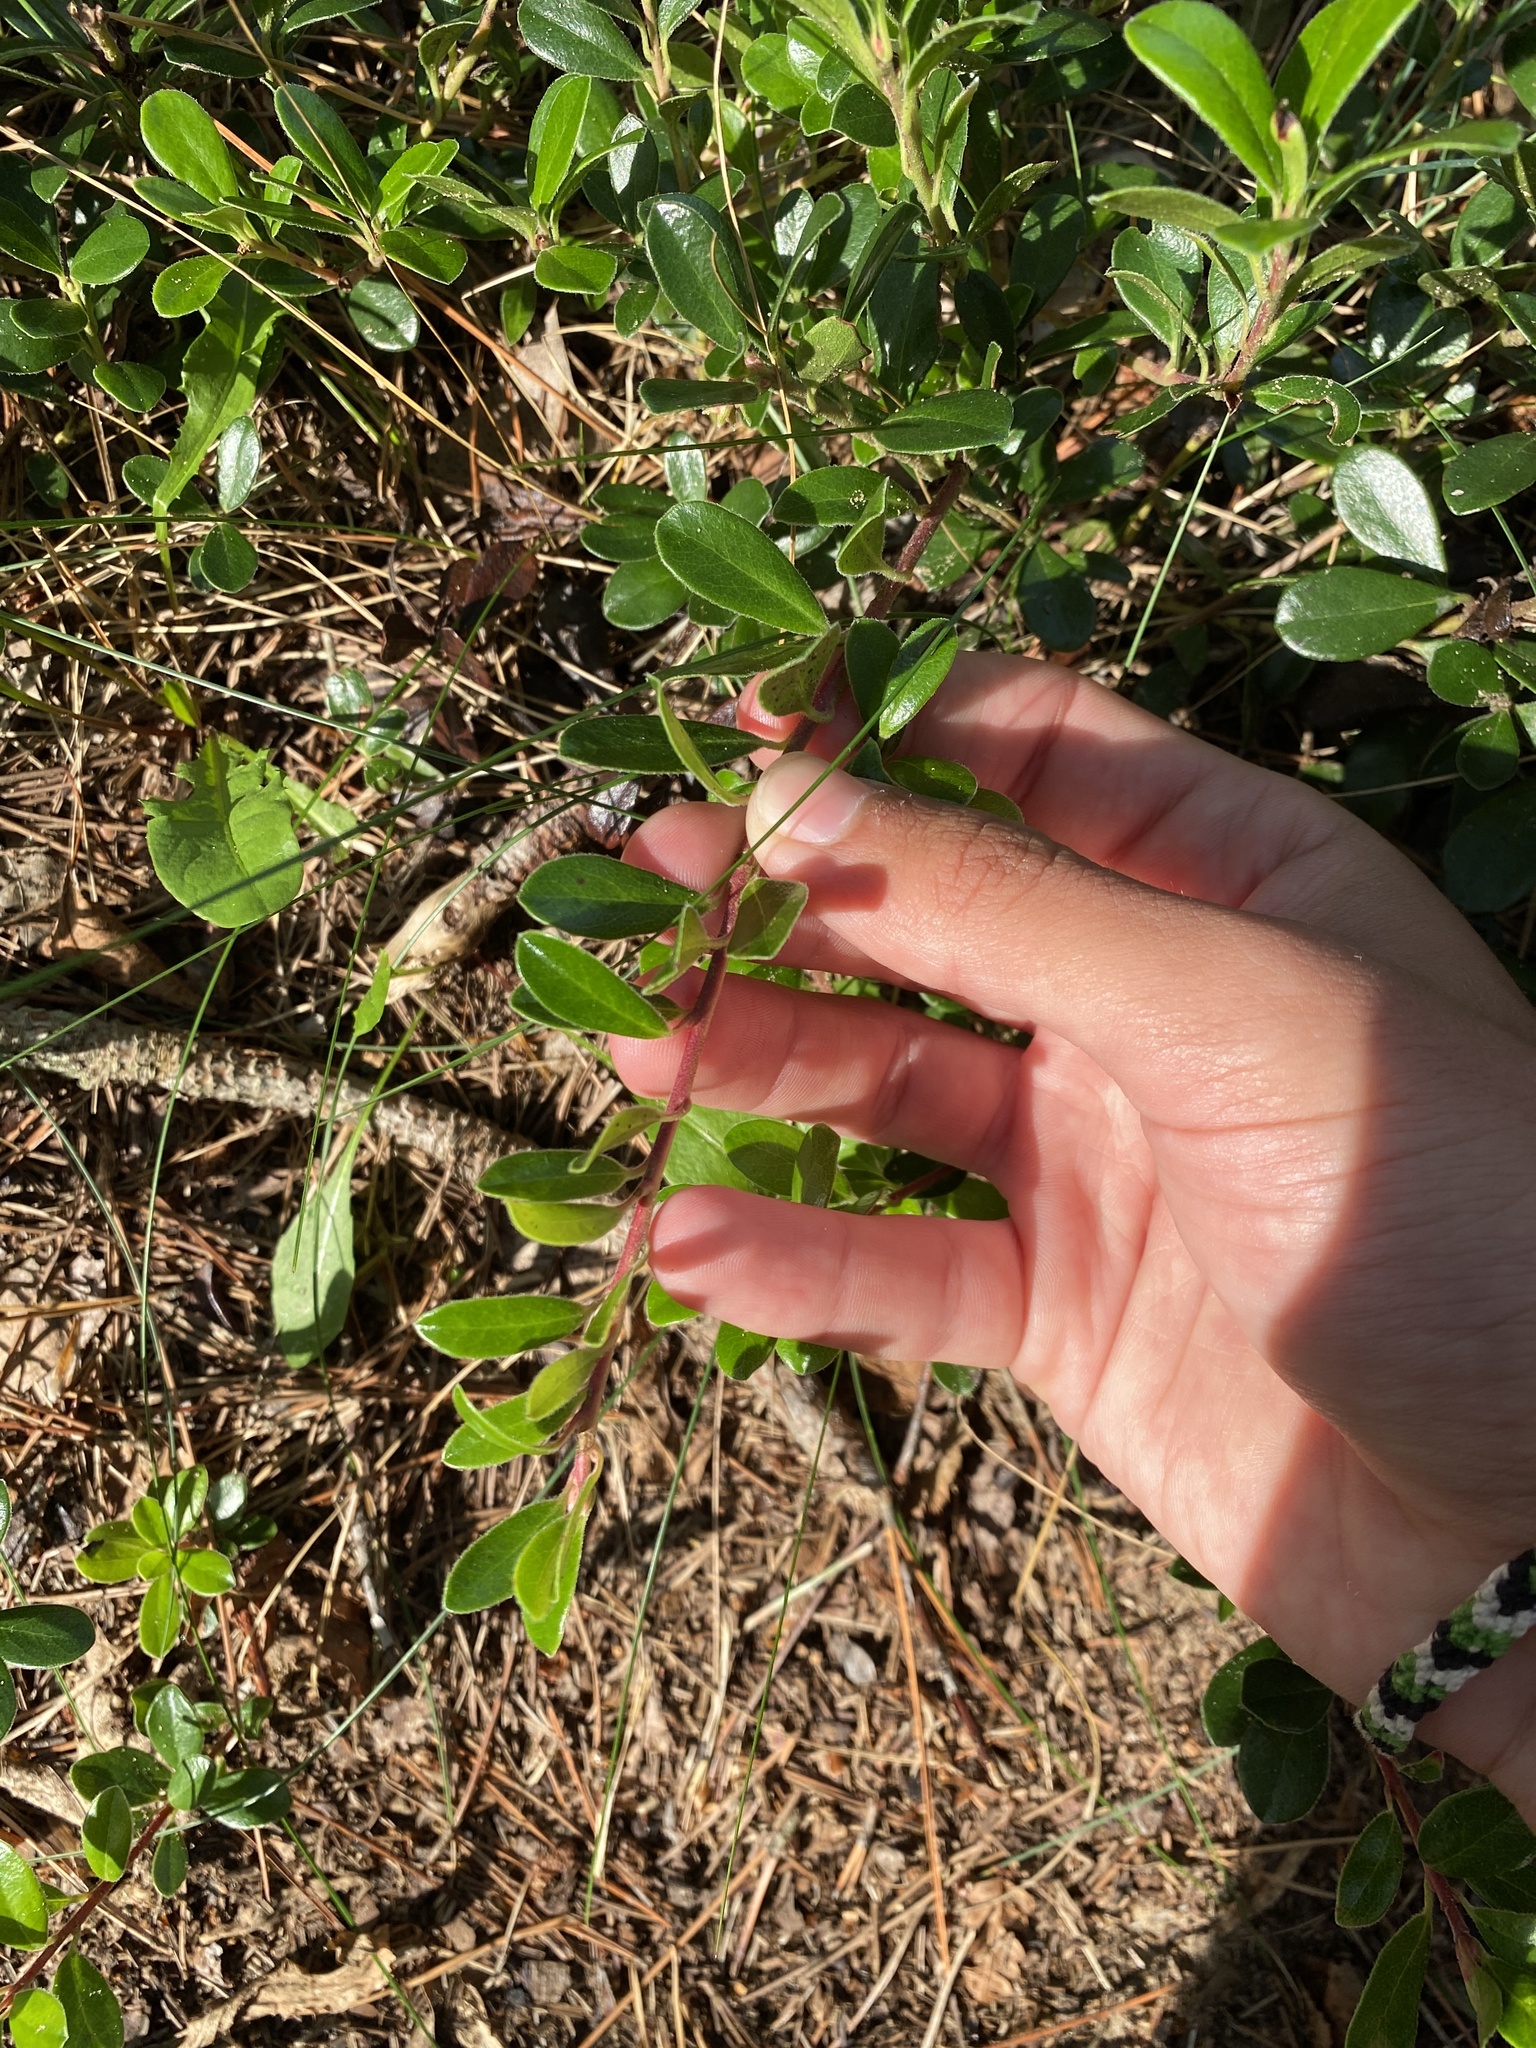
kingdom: Plantae
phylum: Tracheophyta
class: Magnoliopsida
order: Ericales
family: Ericaceae
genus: Arctostaphylos
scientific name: Arctostaphylos uva-ursi
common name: Bearberry
